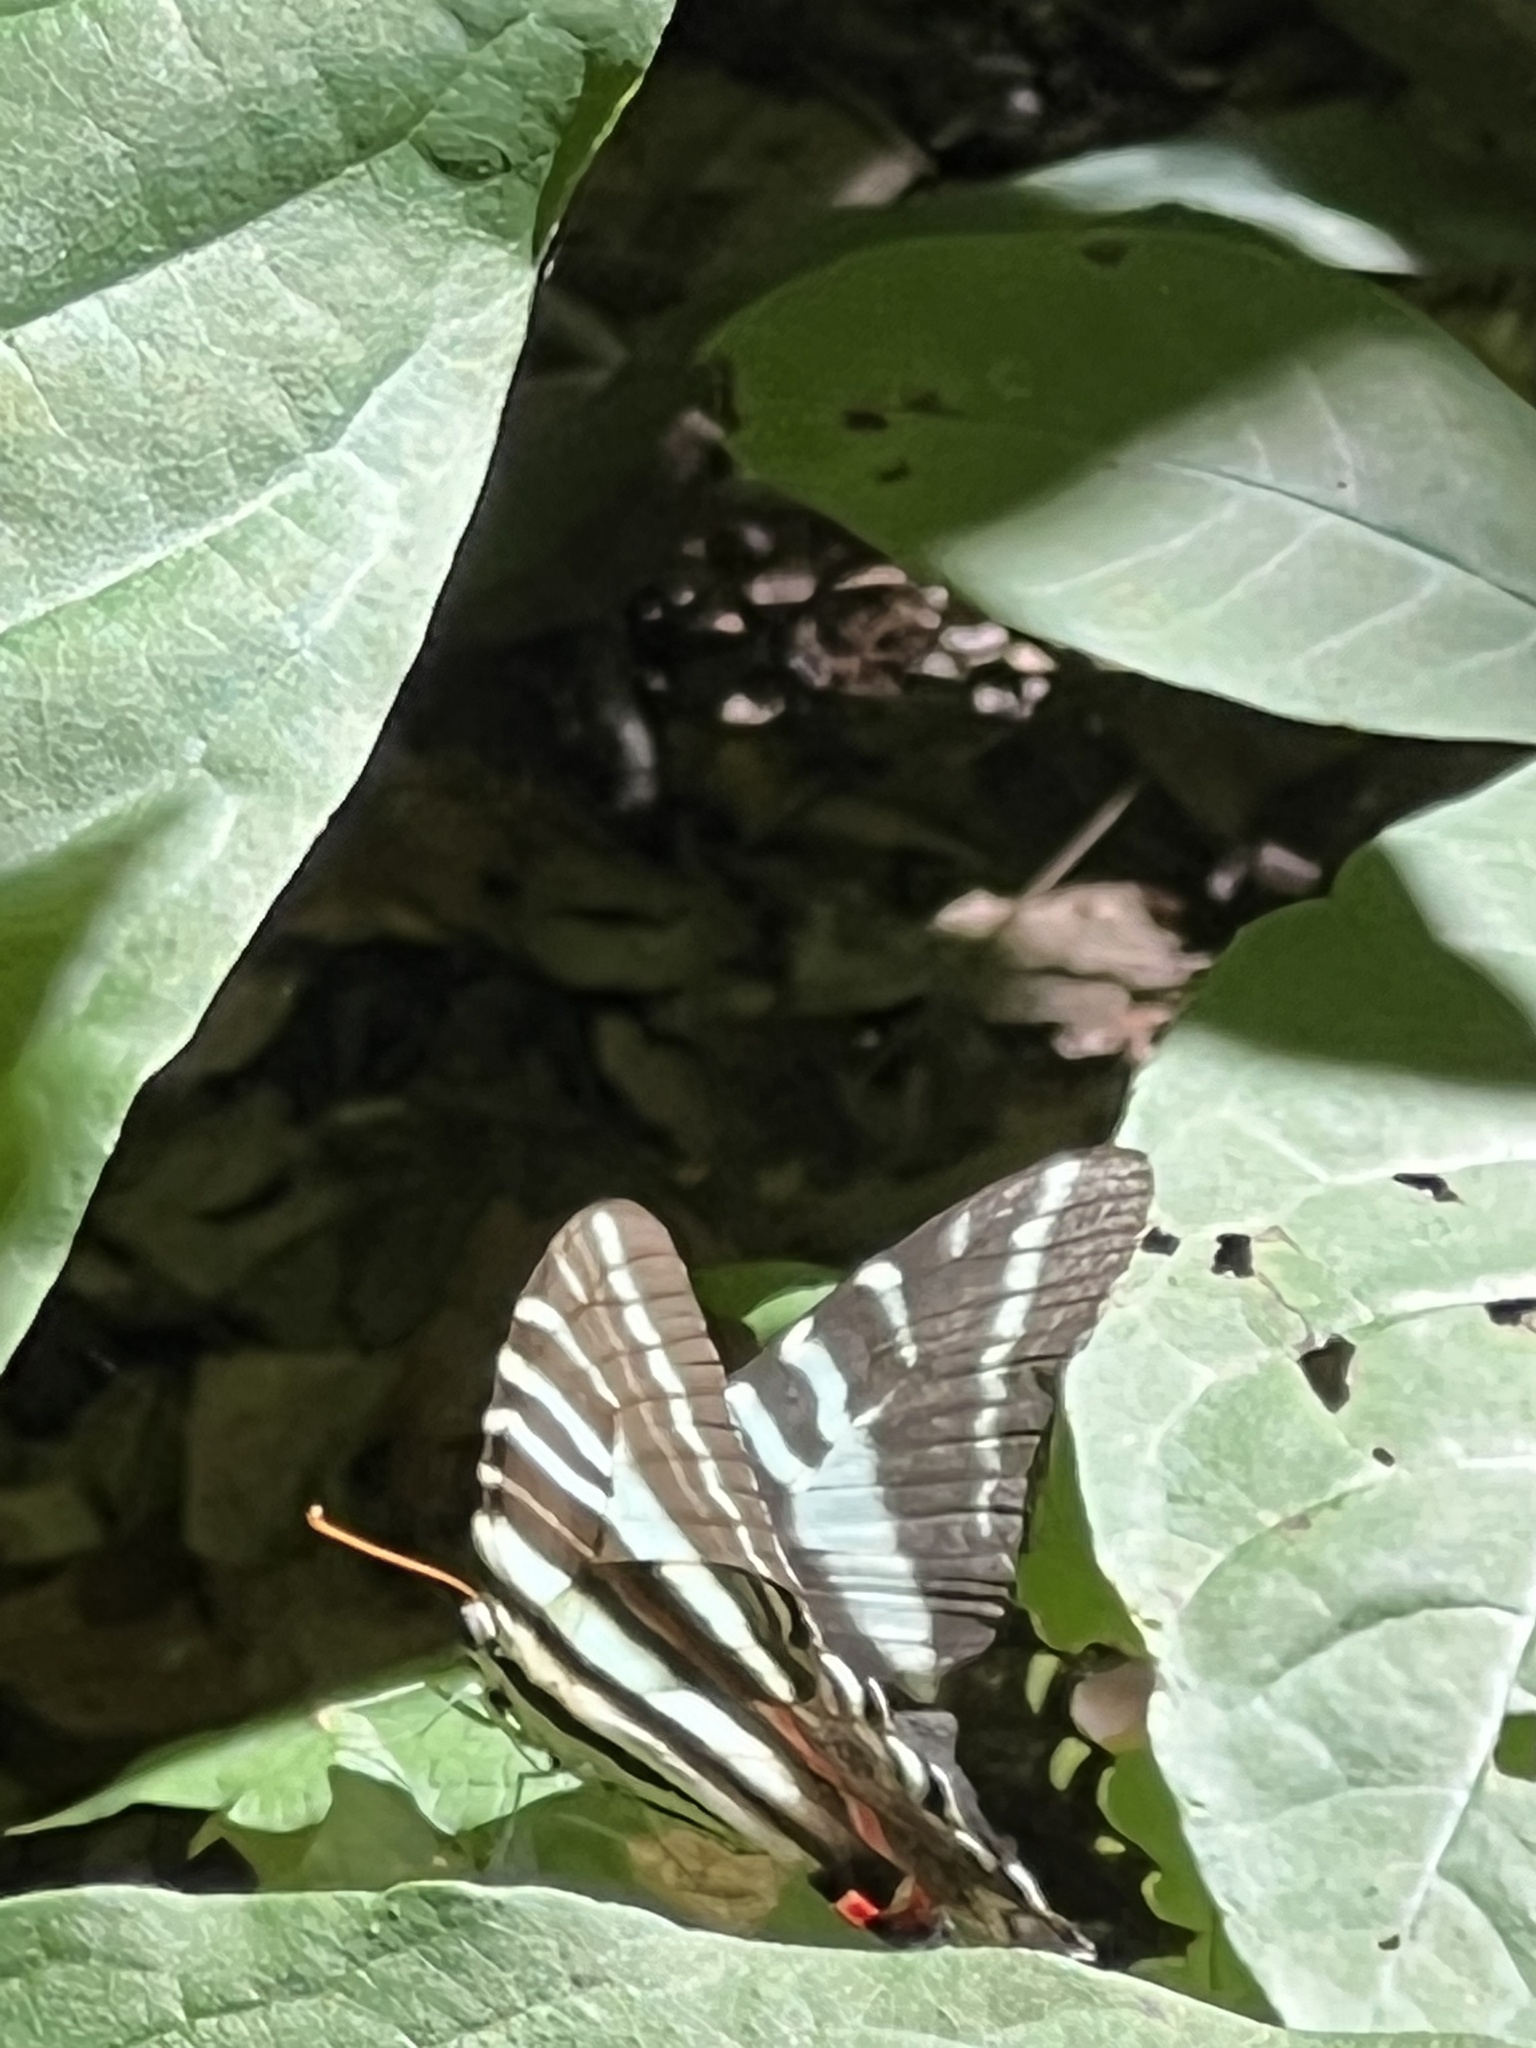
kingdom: Animalia
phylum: Arthropoda
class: Insecta
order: Lepidoptera
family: Papilionidae
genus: Protographium
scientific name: Protographium marcellus
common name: Zebra swallowtail
